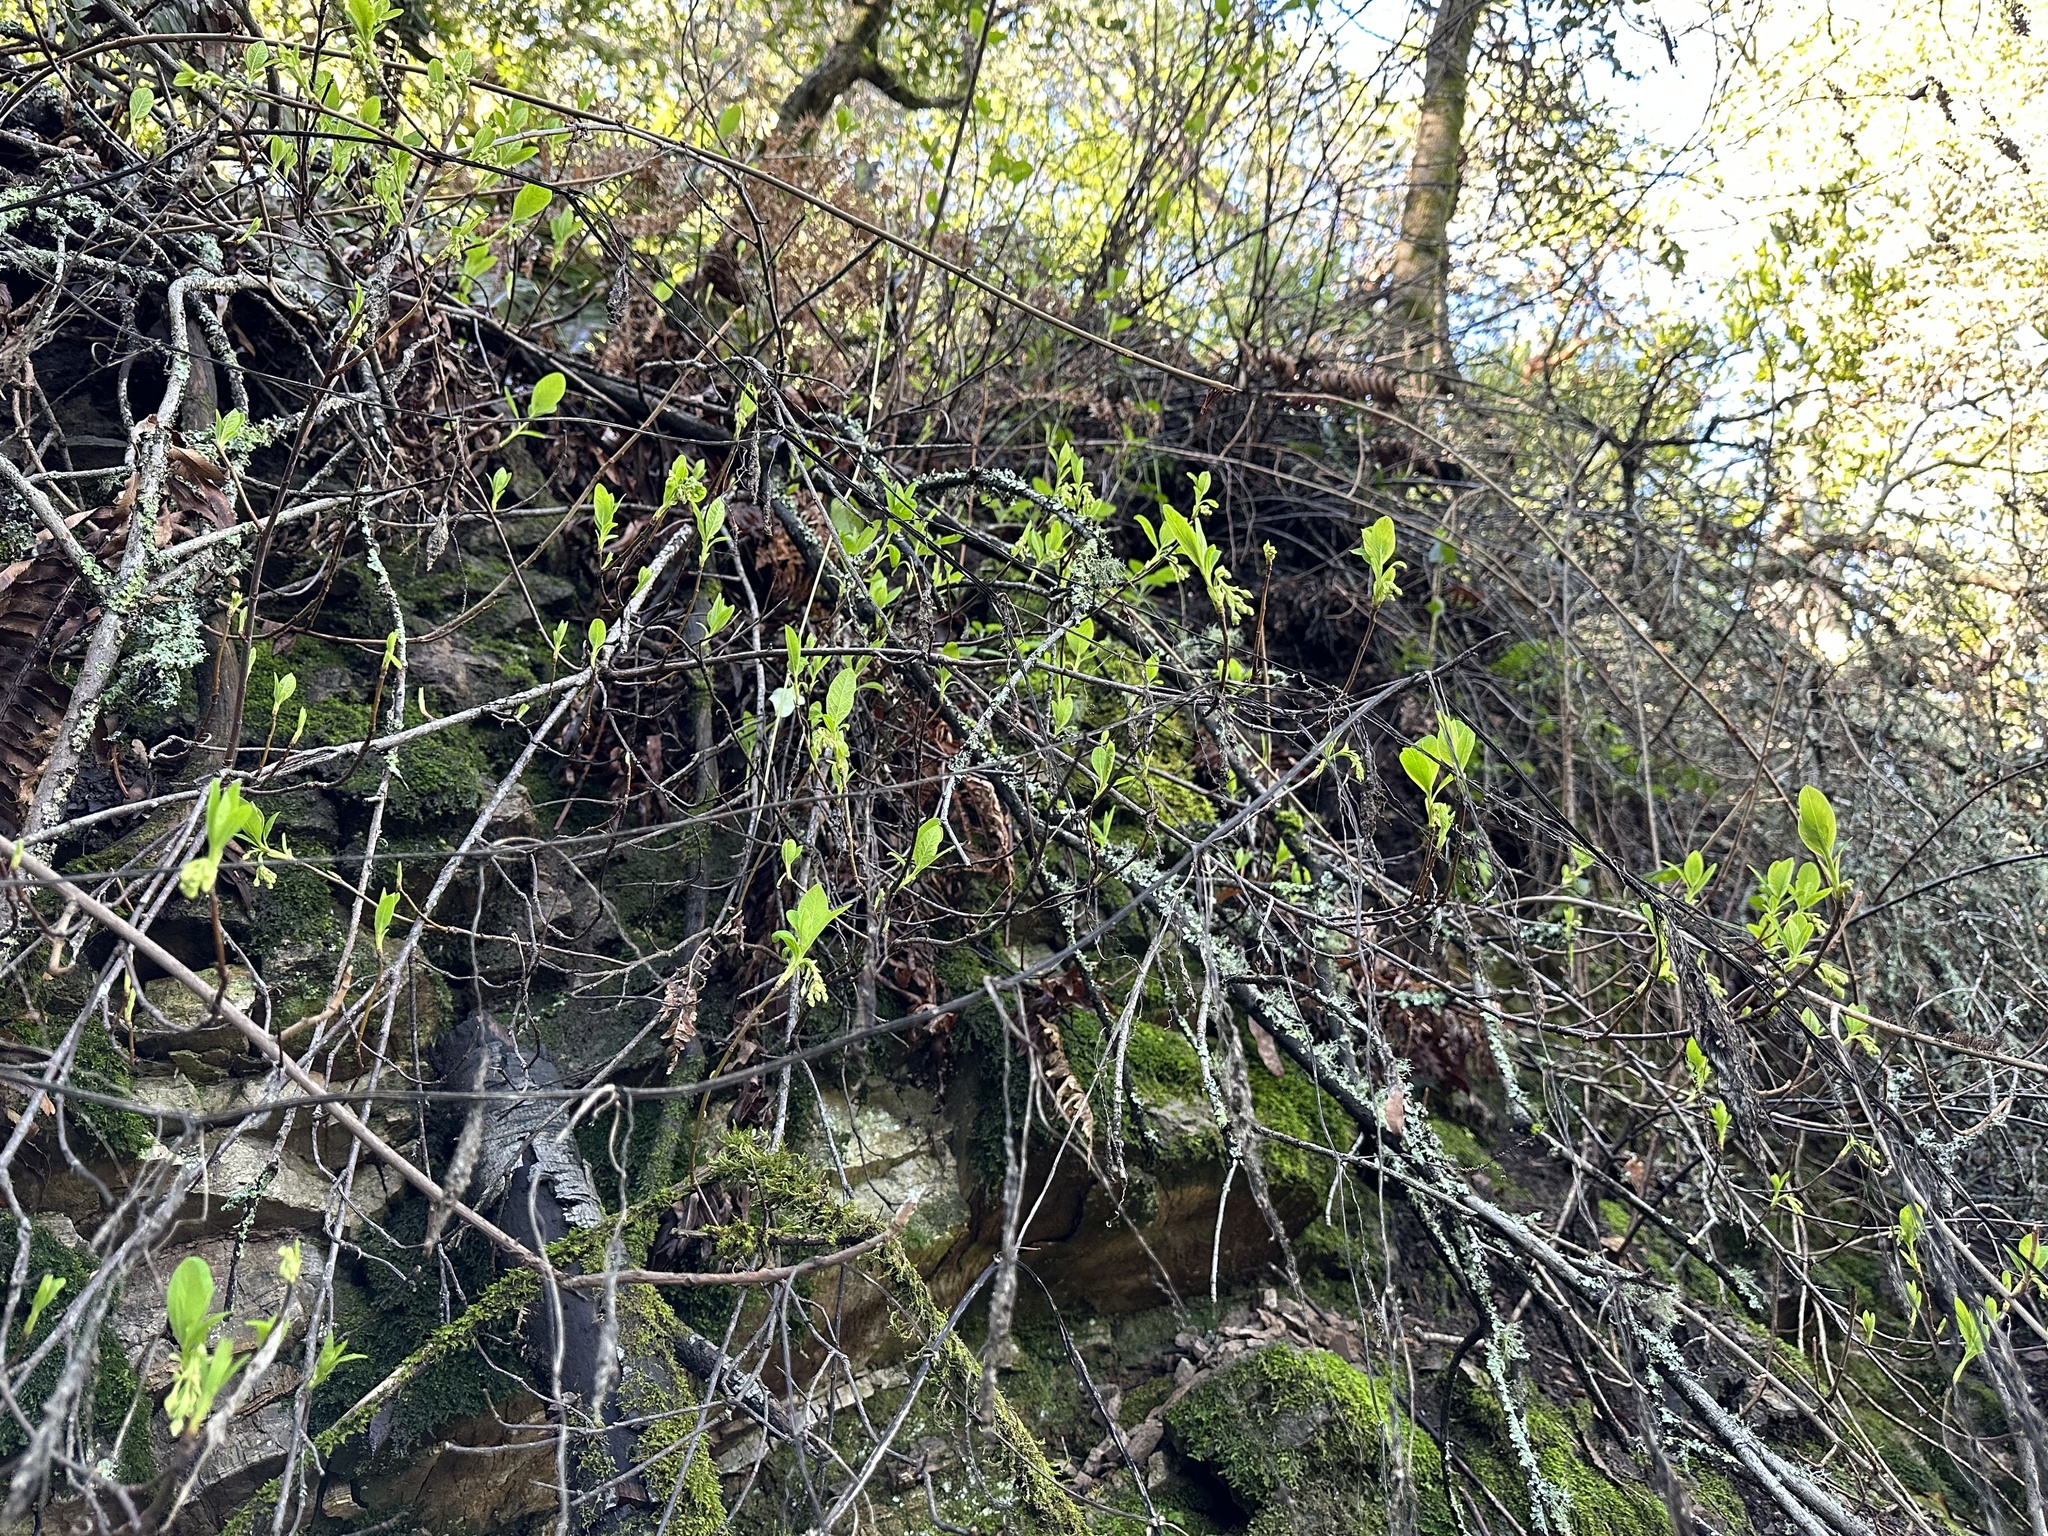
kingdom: Plantae
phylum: Tracheophyta
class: Magnoliopsida
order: Rosales
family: Rosaceae
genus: Oemleria
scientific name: Oemleria cerasiformis
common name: Osoberry
